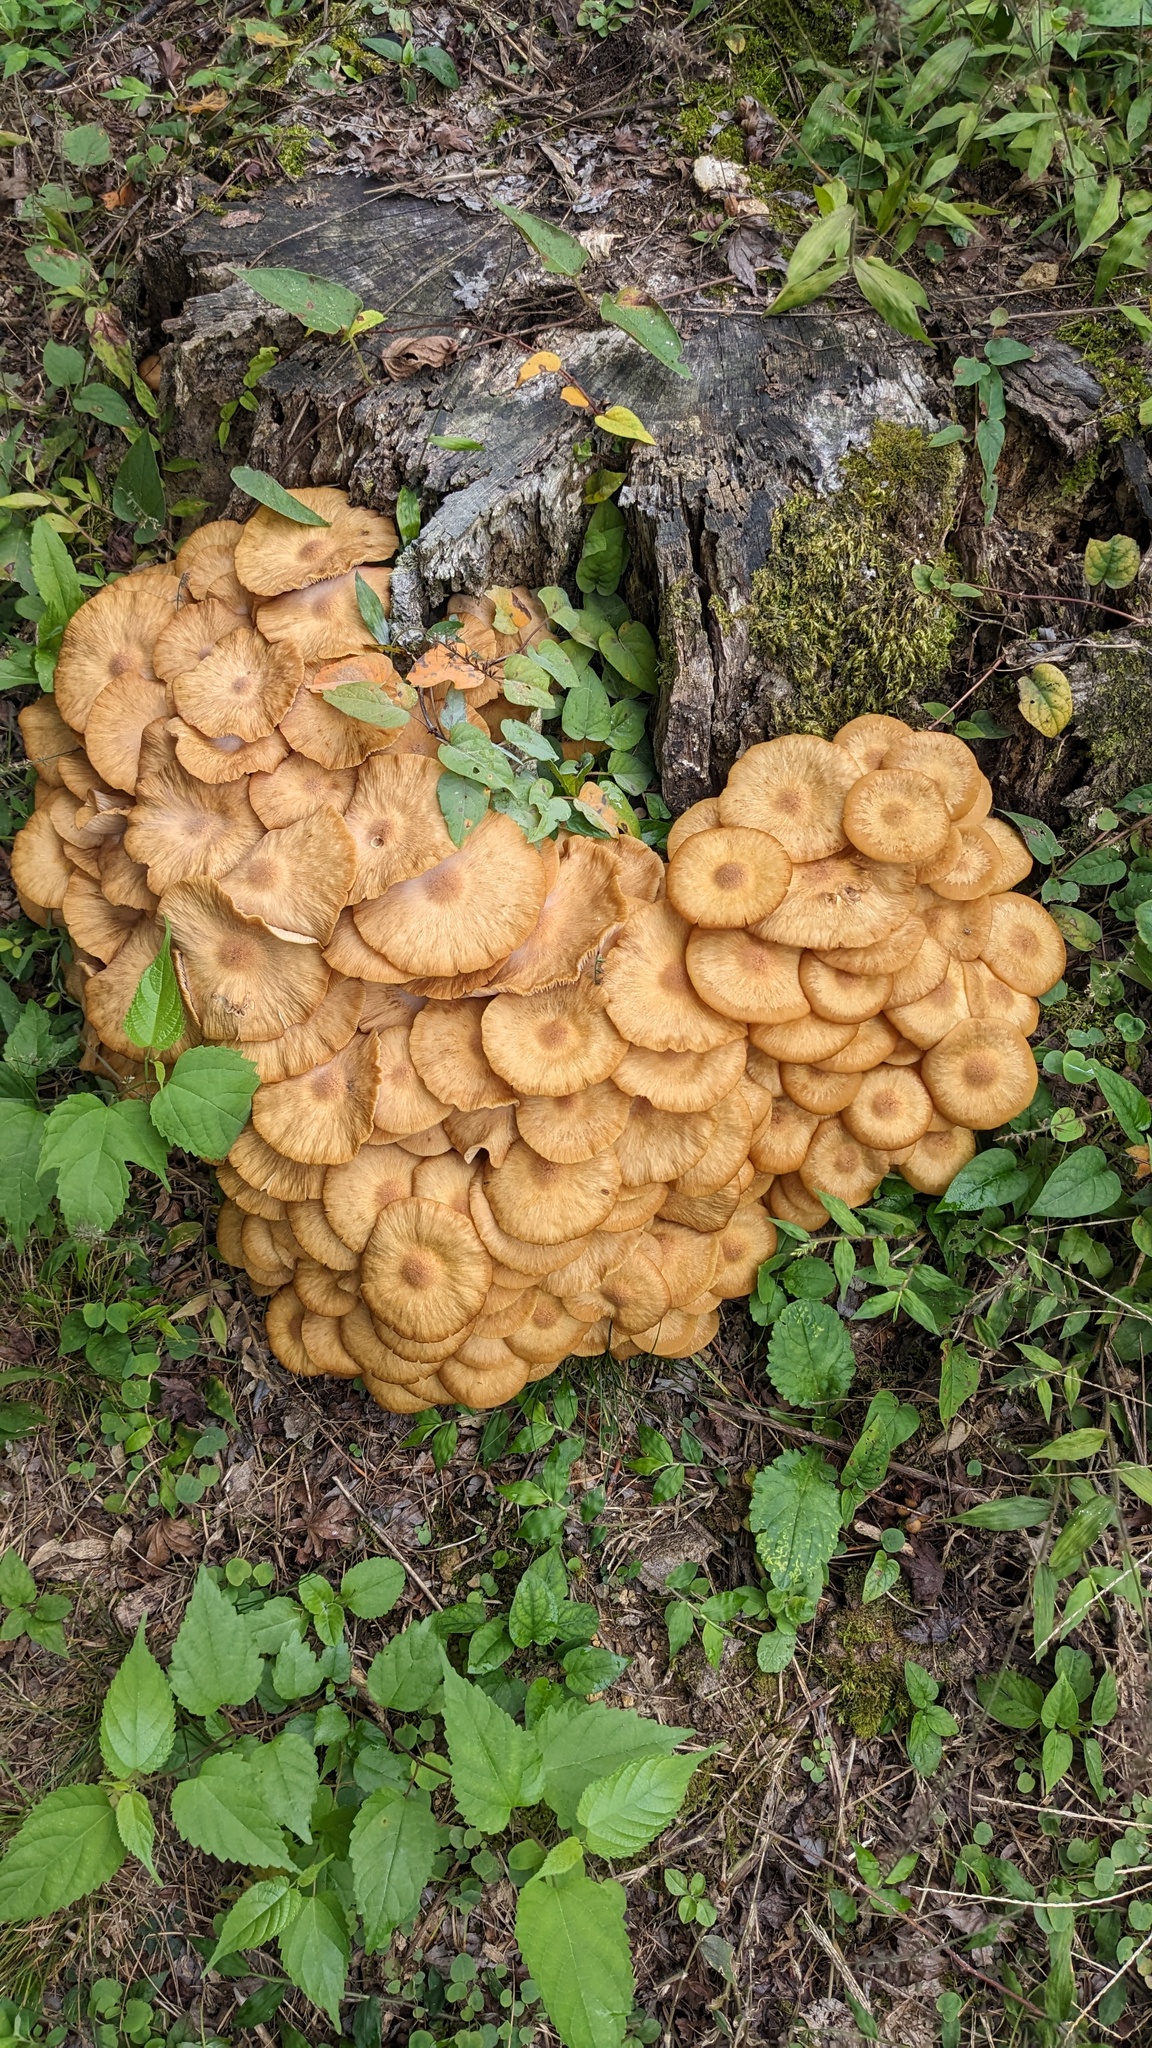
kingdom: Fungi
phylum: Basidiomycota
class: Agaricomycetes
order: Agaricales
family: Physalacriaceae
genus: Desarmillaria
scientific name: Desarmillaria tabescens
